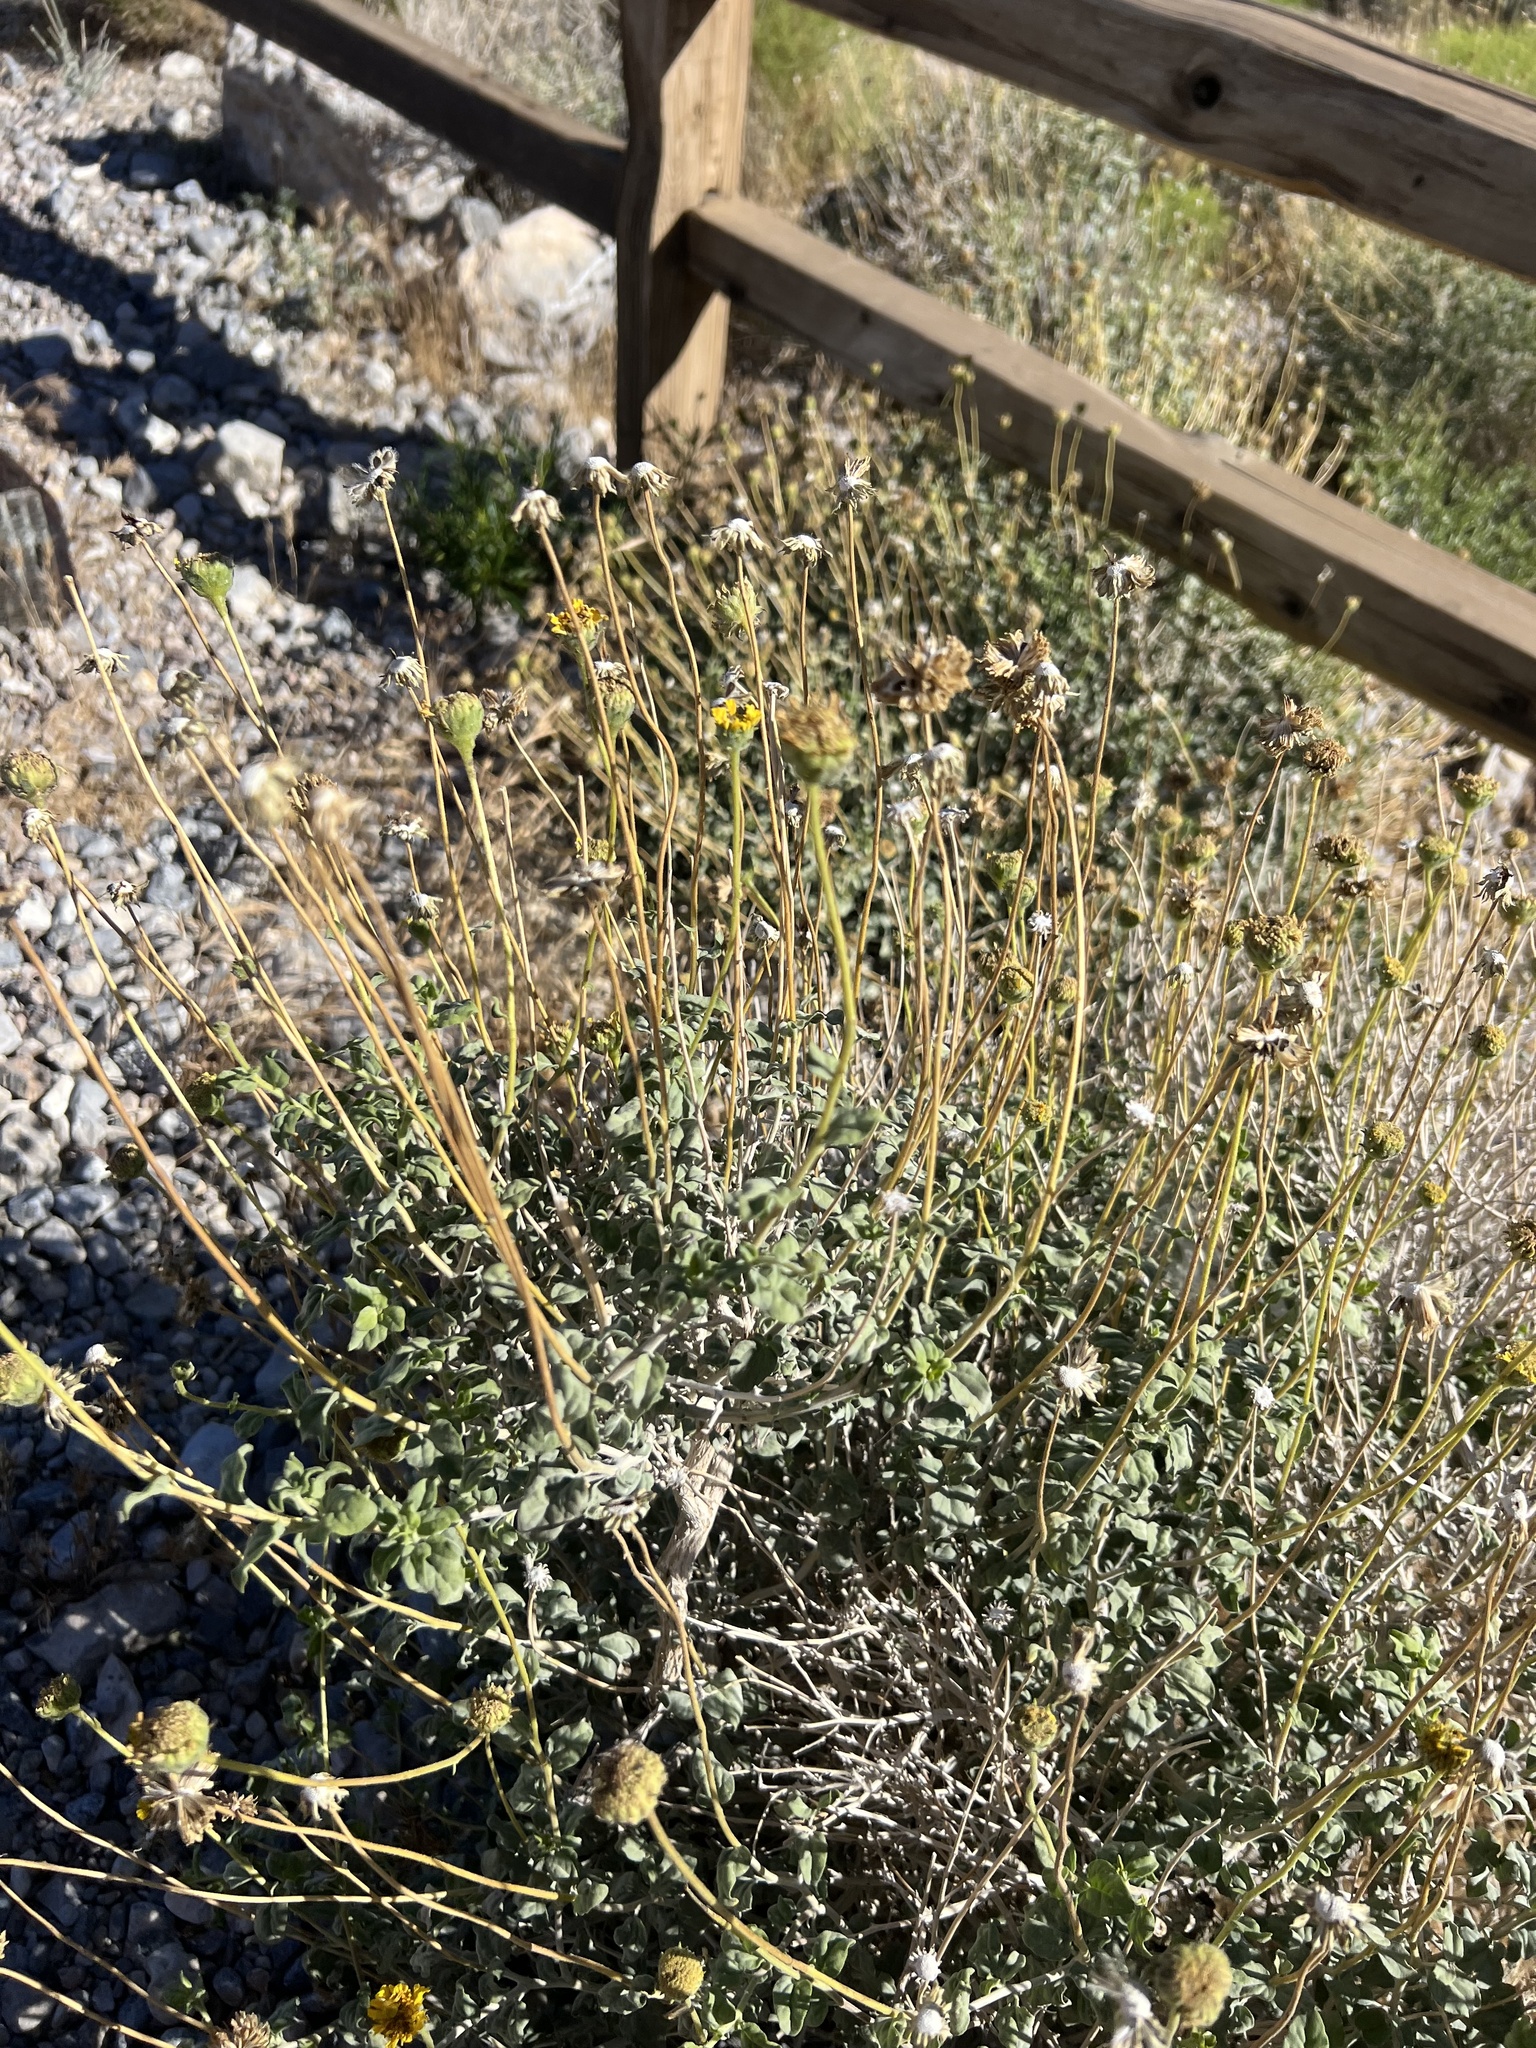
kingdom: Plantae
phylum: Tracheophyta
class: Magnoliopsida
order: Asterales
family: Asteraceae
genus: Encelia
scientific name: Encelia virginensis
